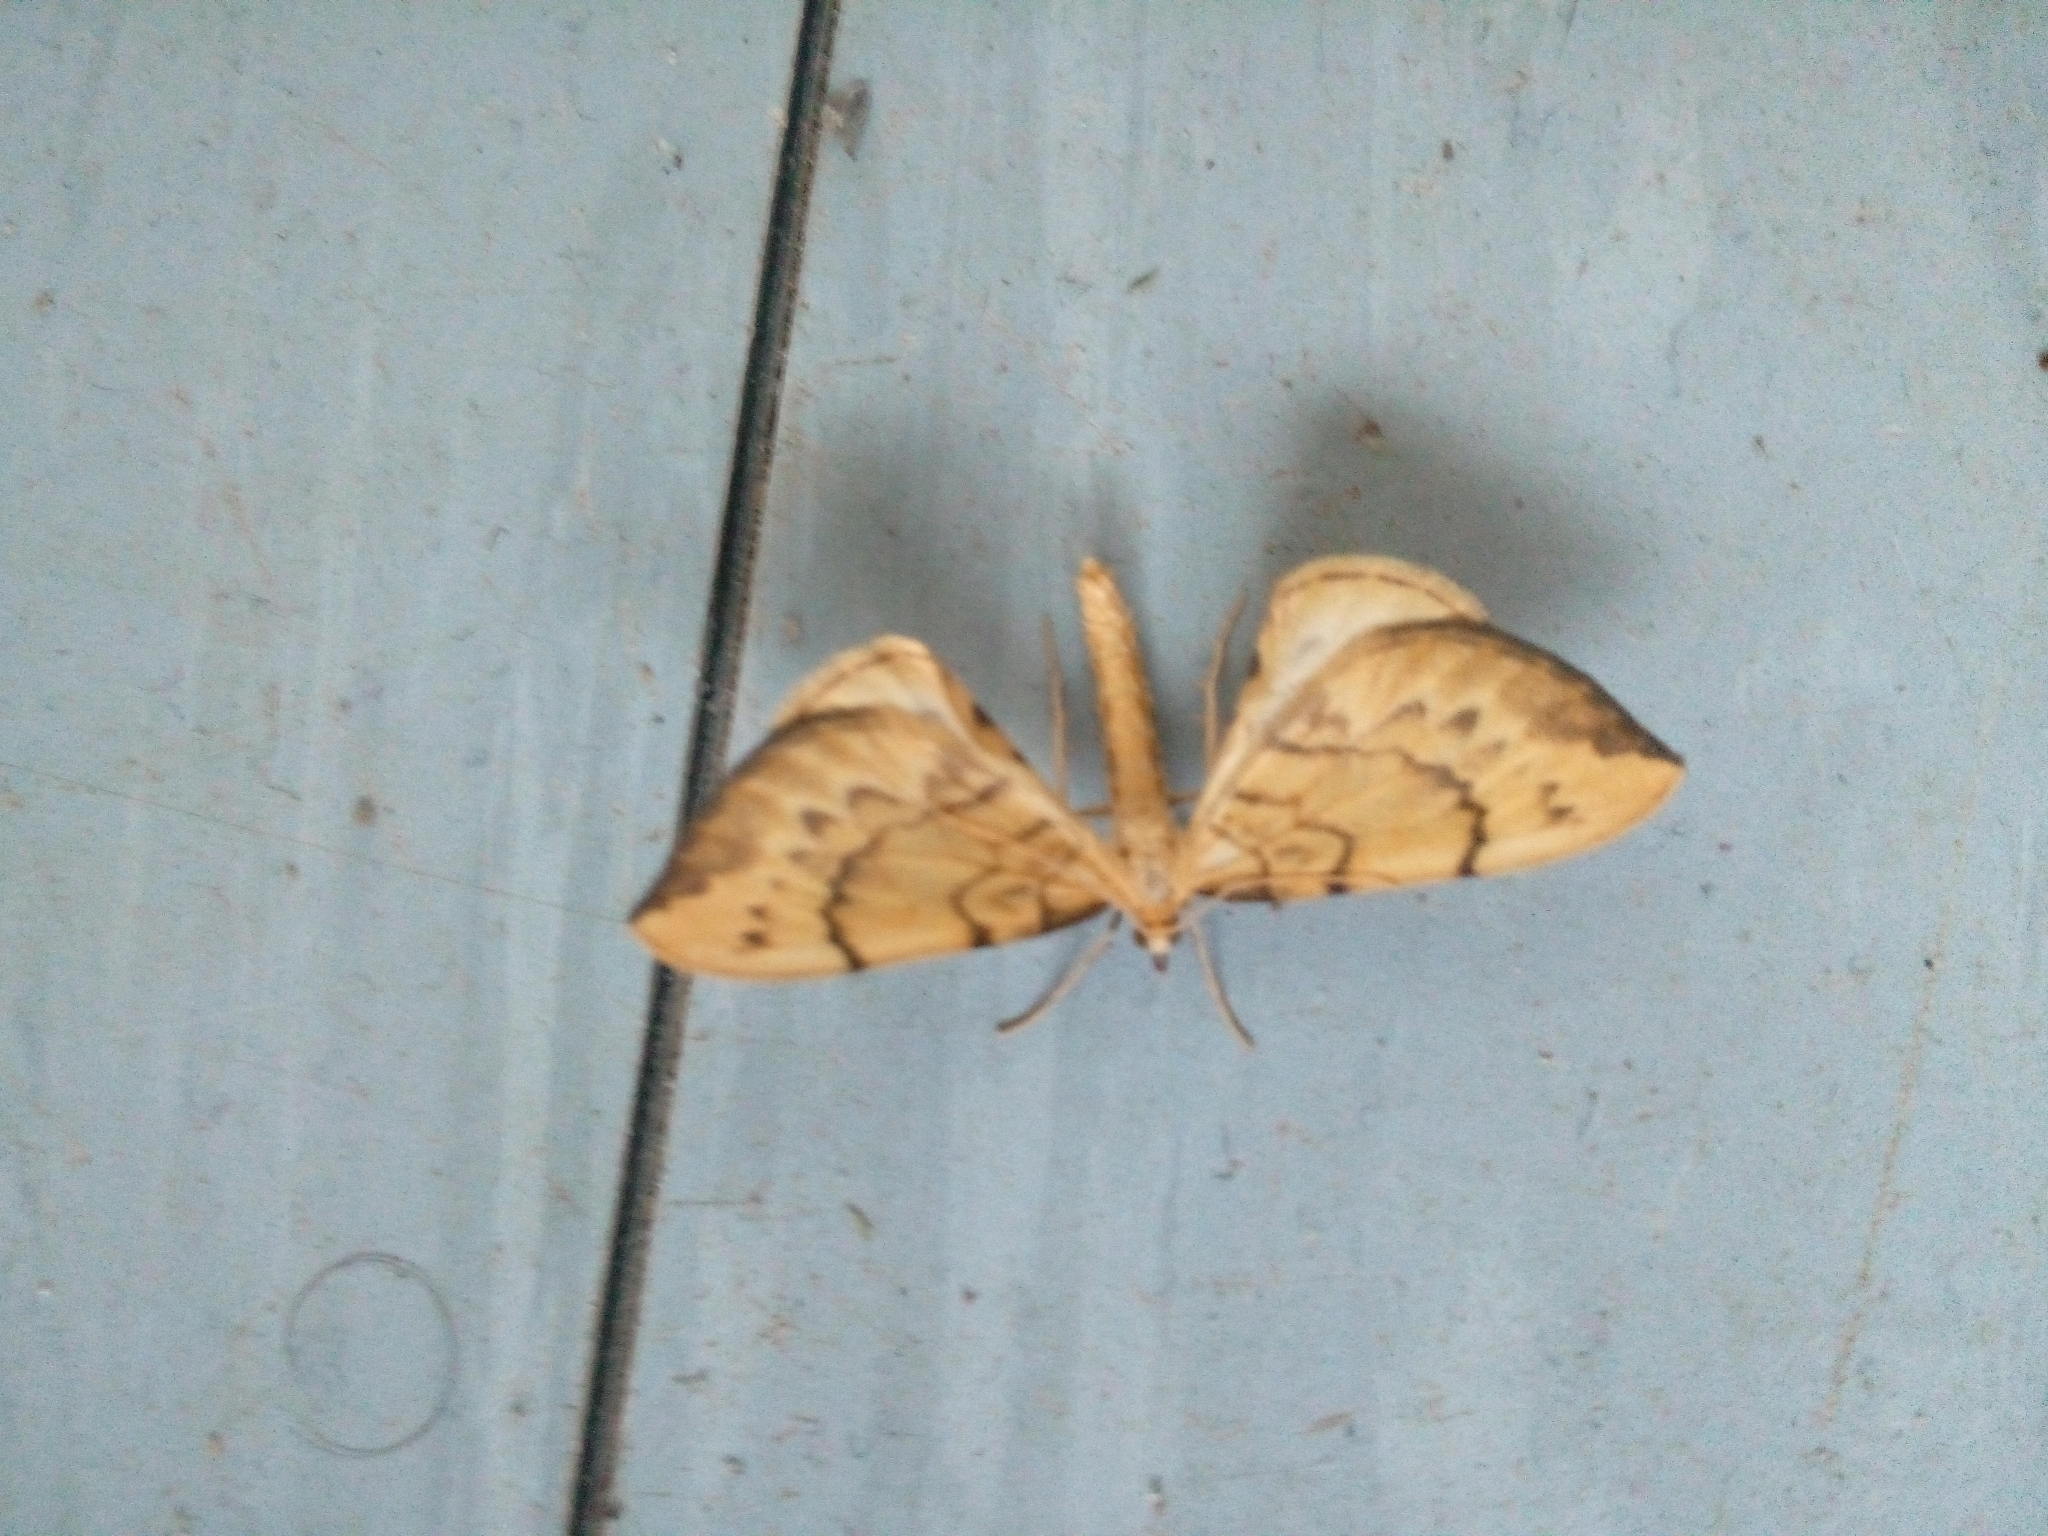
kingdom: Animalia
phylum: Arthropoda
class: Insecta
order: Lepidoptera
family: Geometridae
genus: Eulithis
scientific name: Eulithis pyraliata
